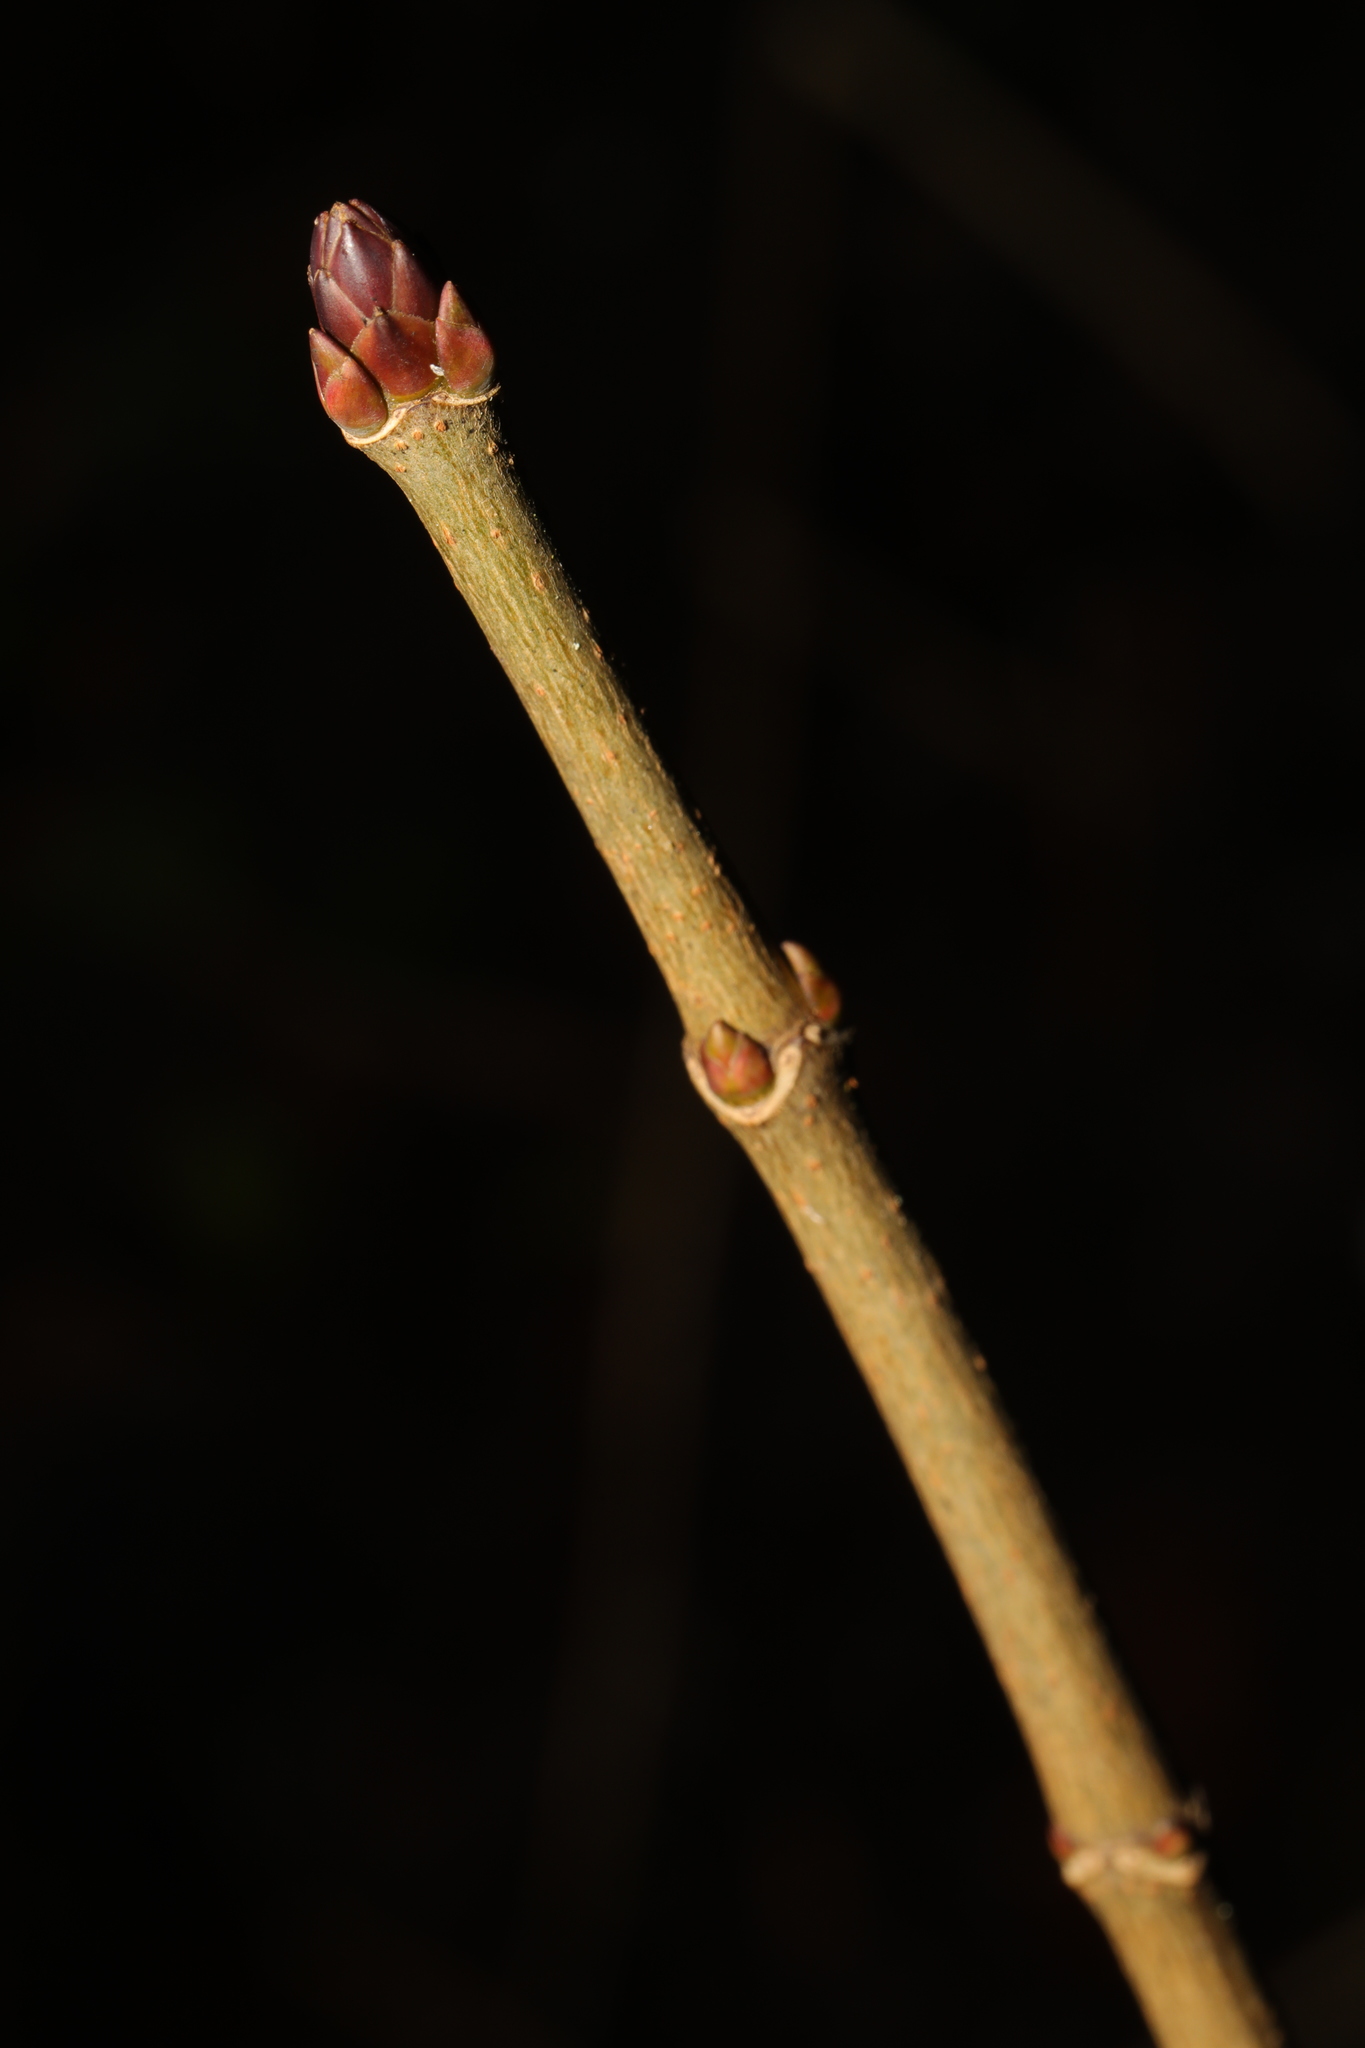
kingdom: Plantae
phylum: Tracheophyta
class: Magnoliopsida
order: Sapindales
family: Sapindaceae
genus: Acer
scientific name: Acer platanoides
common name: Norway maple
